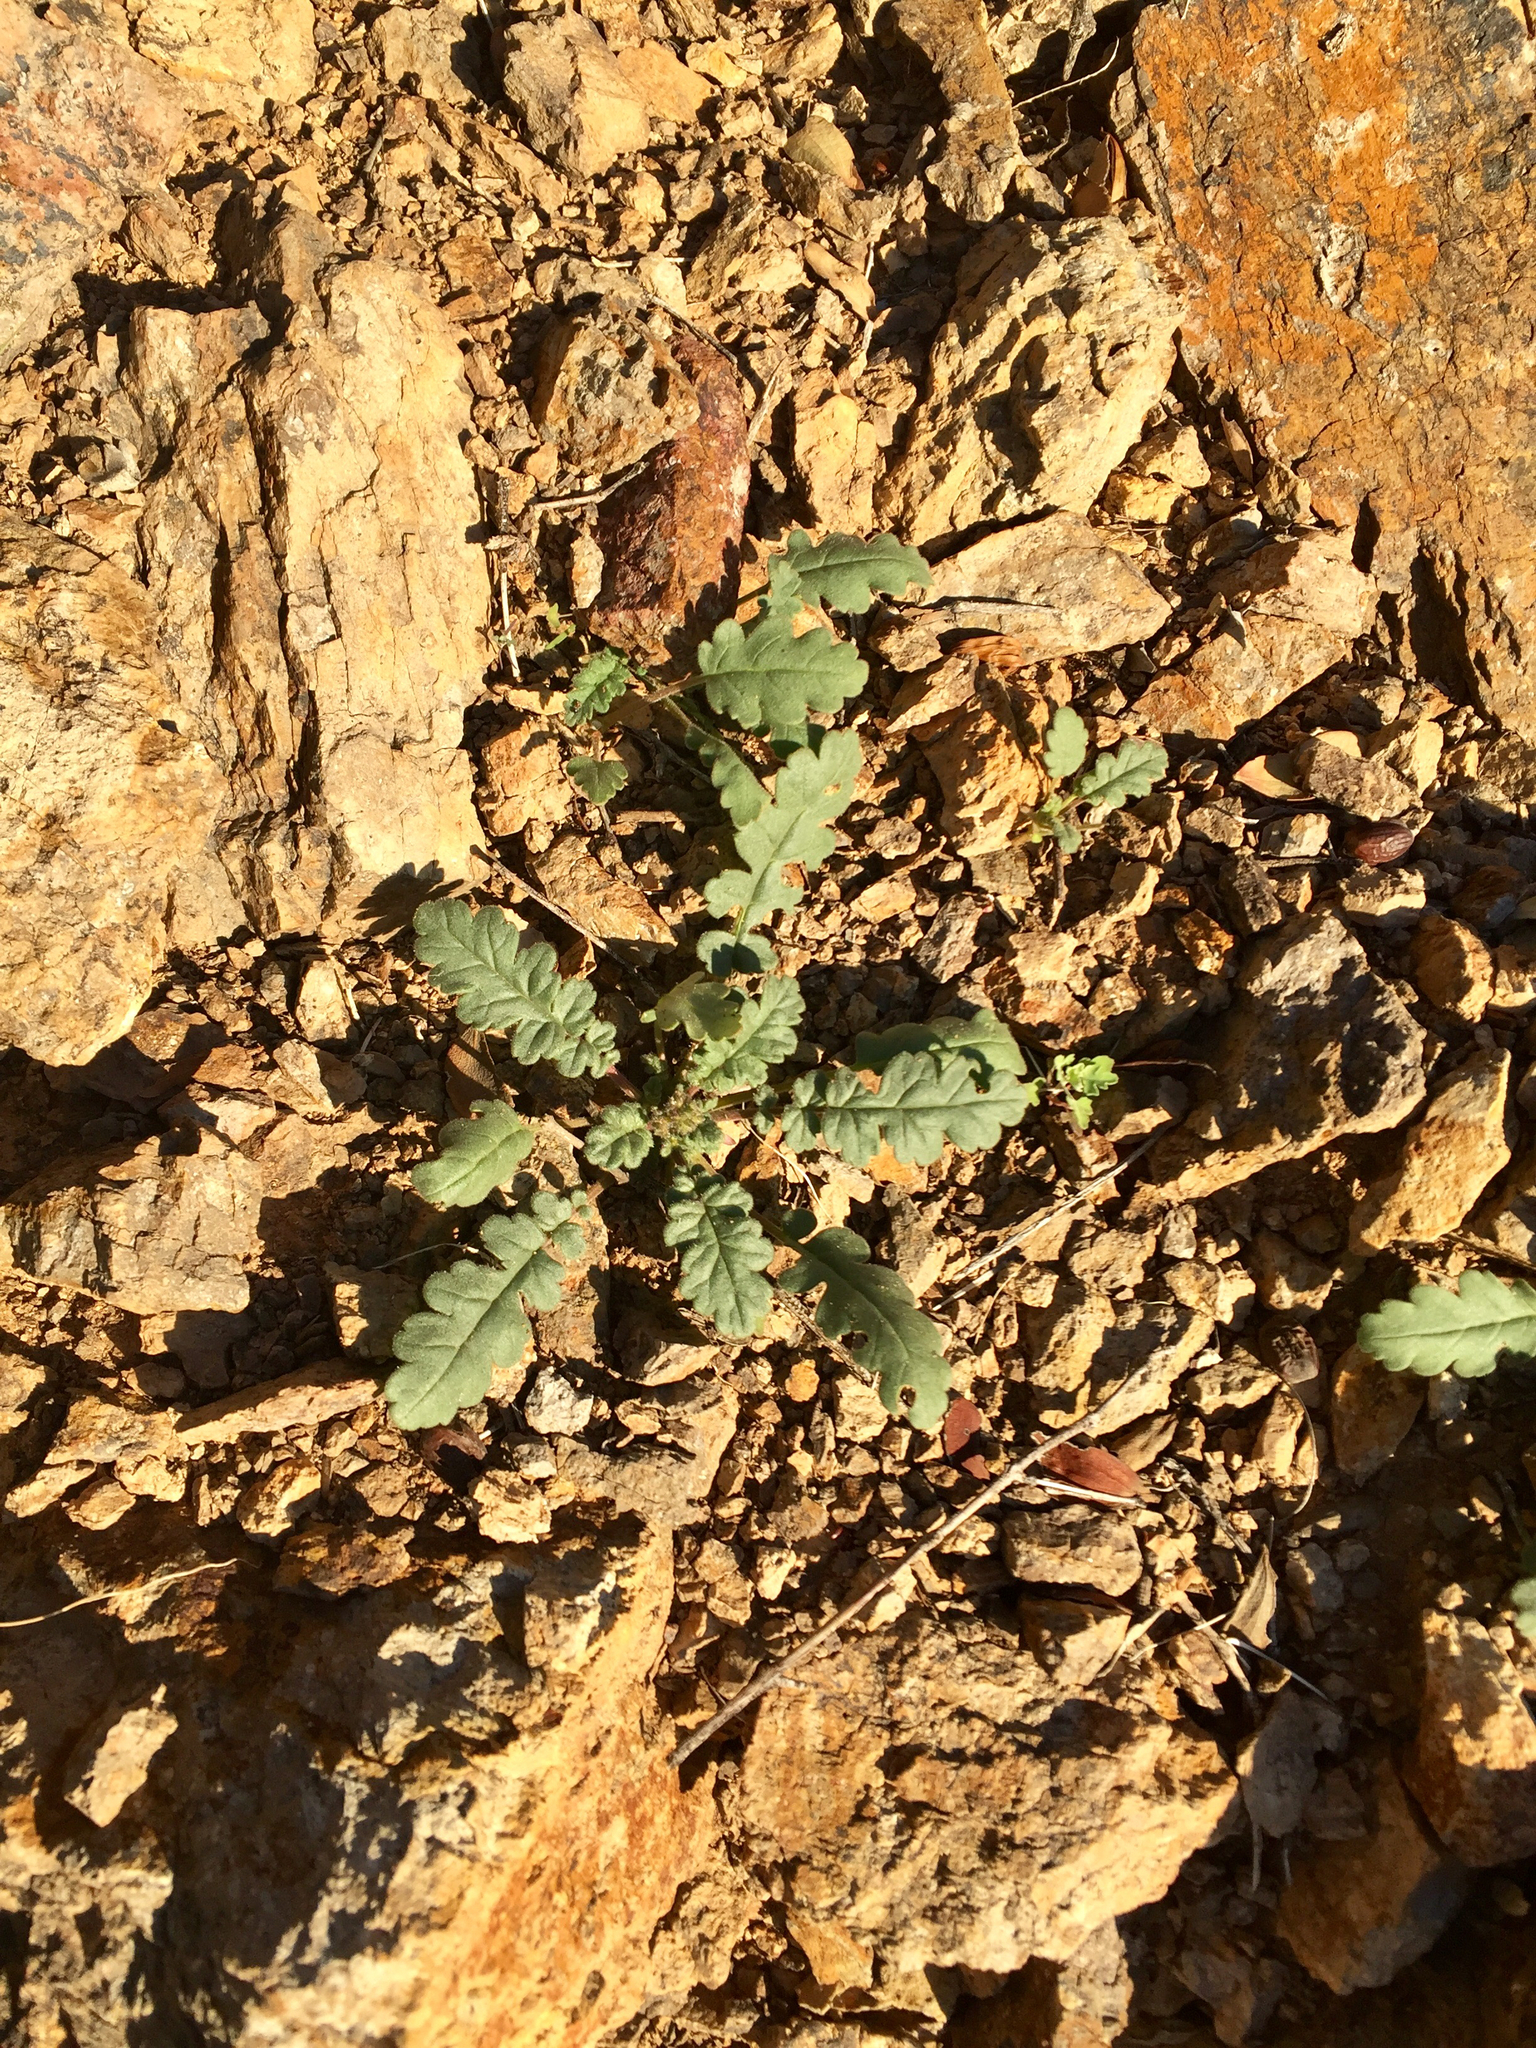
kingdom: Plantae
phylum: Tracheophyta
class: Magnoliopsida
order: Boraginales
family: Hydrophyllaceae
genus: Phacelia
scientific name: Phacelia crenulata
